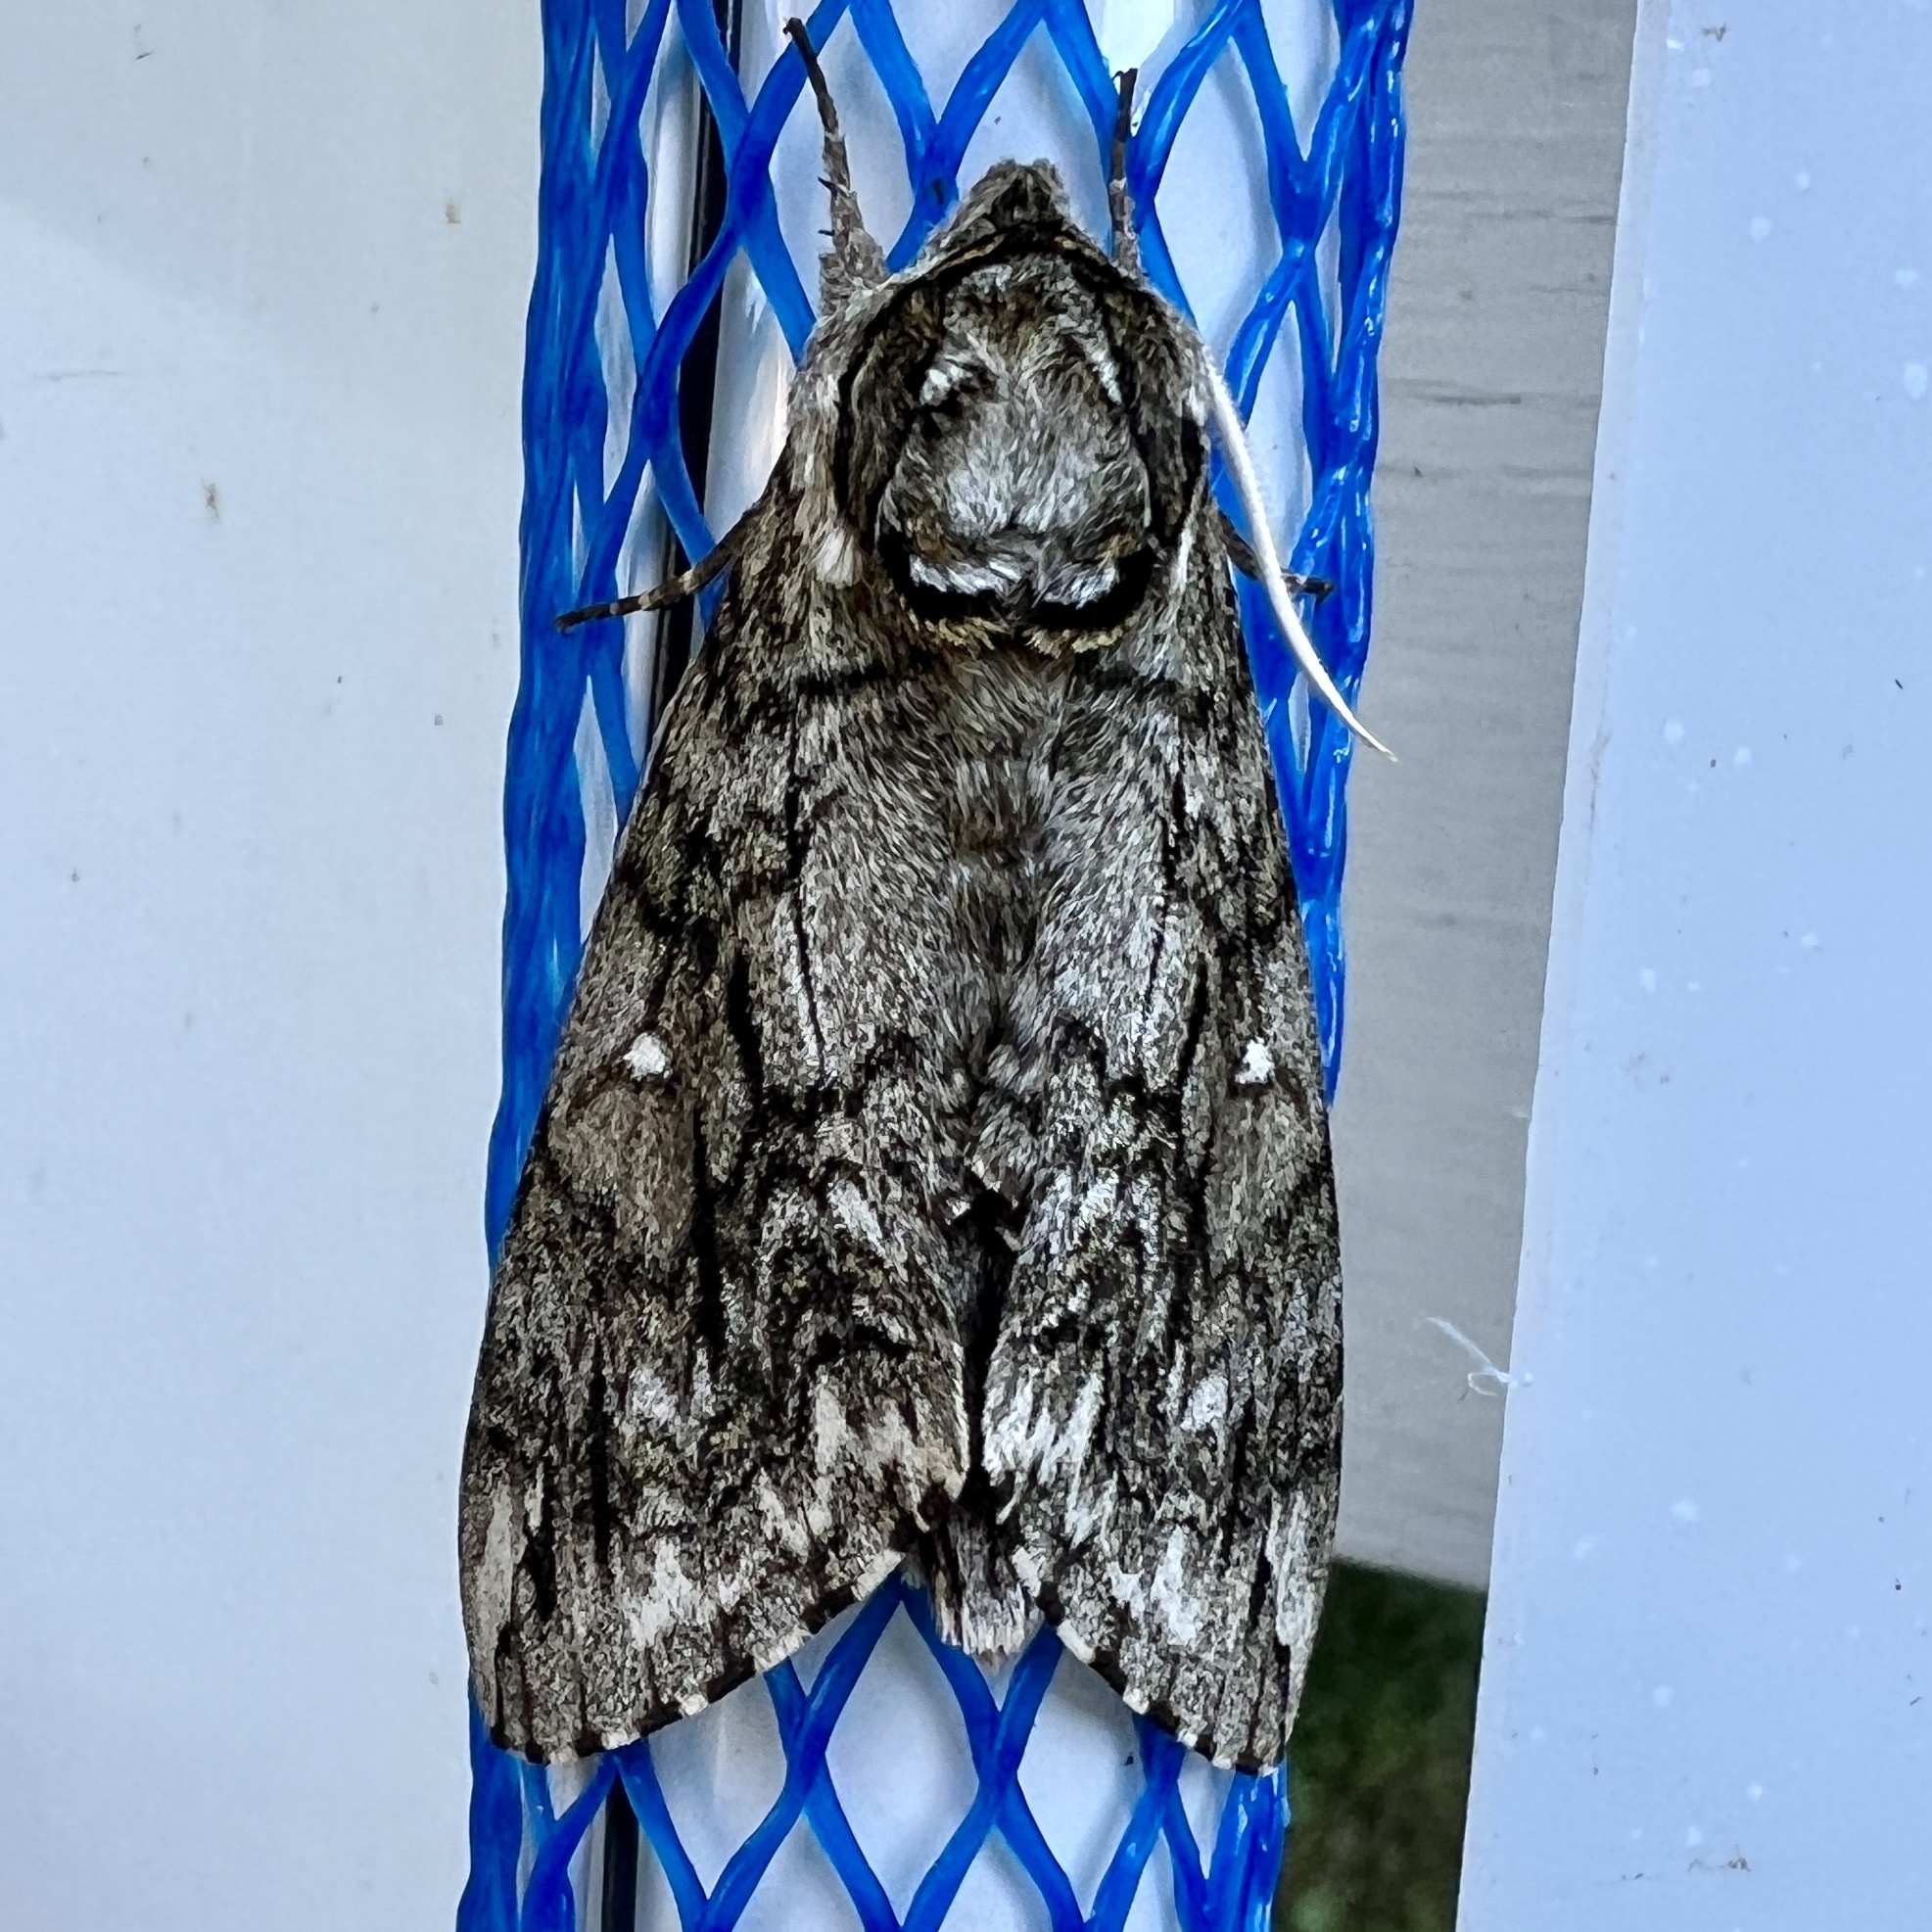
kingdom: Animalia
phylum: Arthropoda
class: Insecta
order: Lepidoptera
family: Sphingidae
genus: Ceratomia
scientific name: Ceratomia undulosa
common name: Waved sphinx
